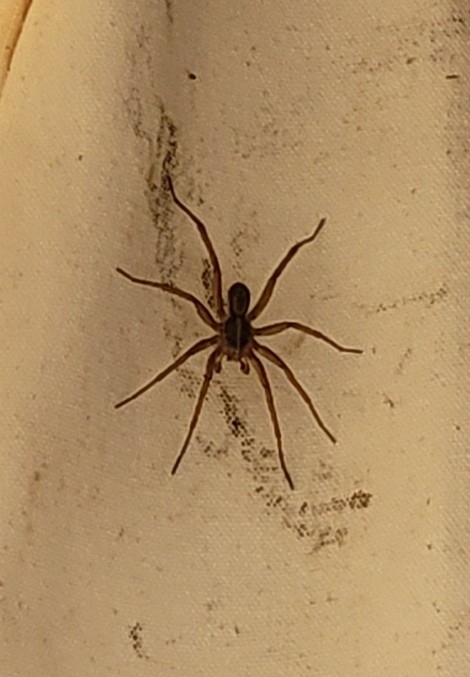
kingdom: Animalia
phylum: Arthropoda
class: Arachnida
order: Araneae
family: Lycosidae
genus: Tigrosa
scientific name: Tigrosa helluo
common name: Wetland giant wolf spider
